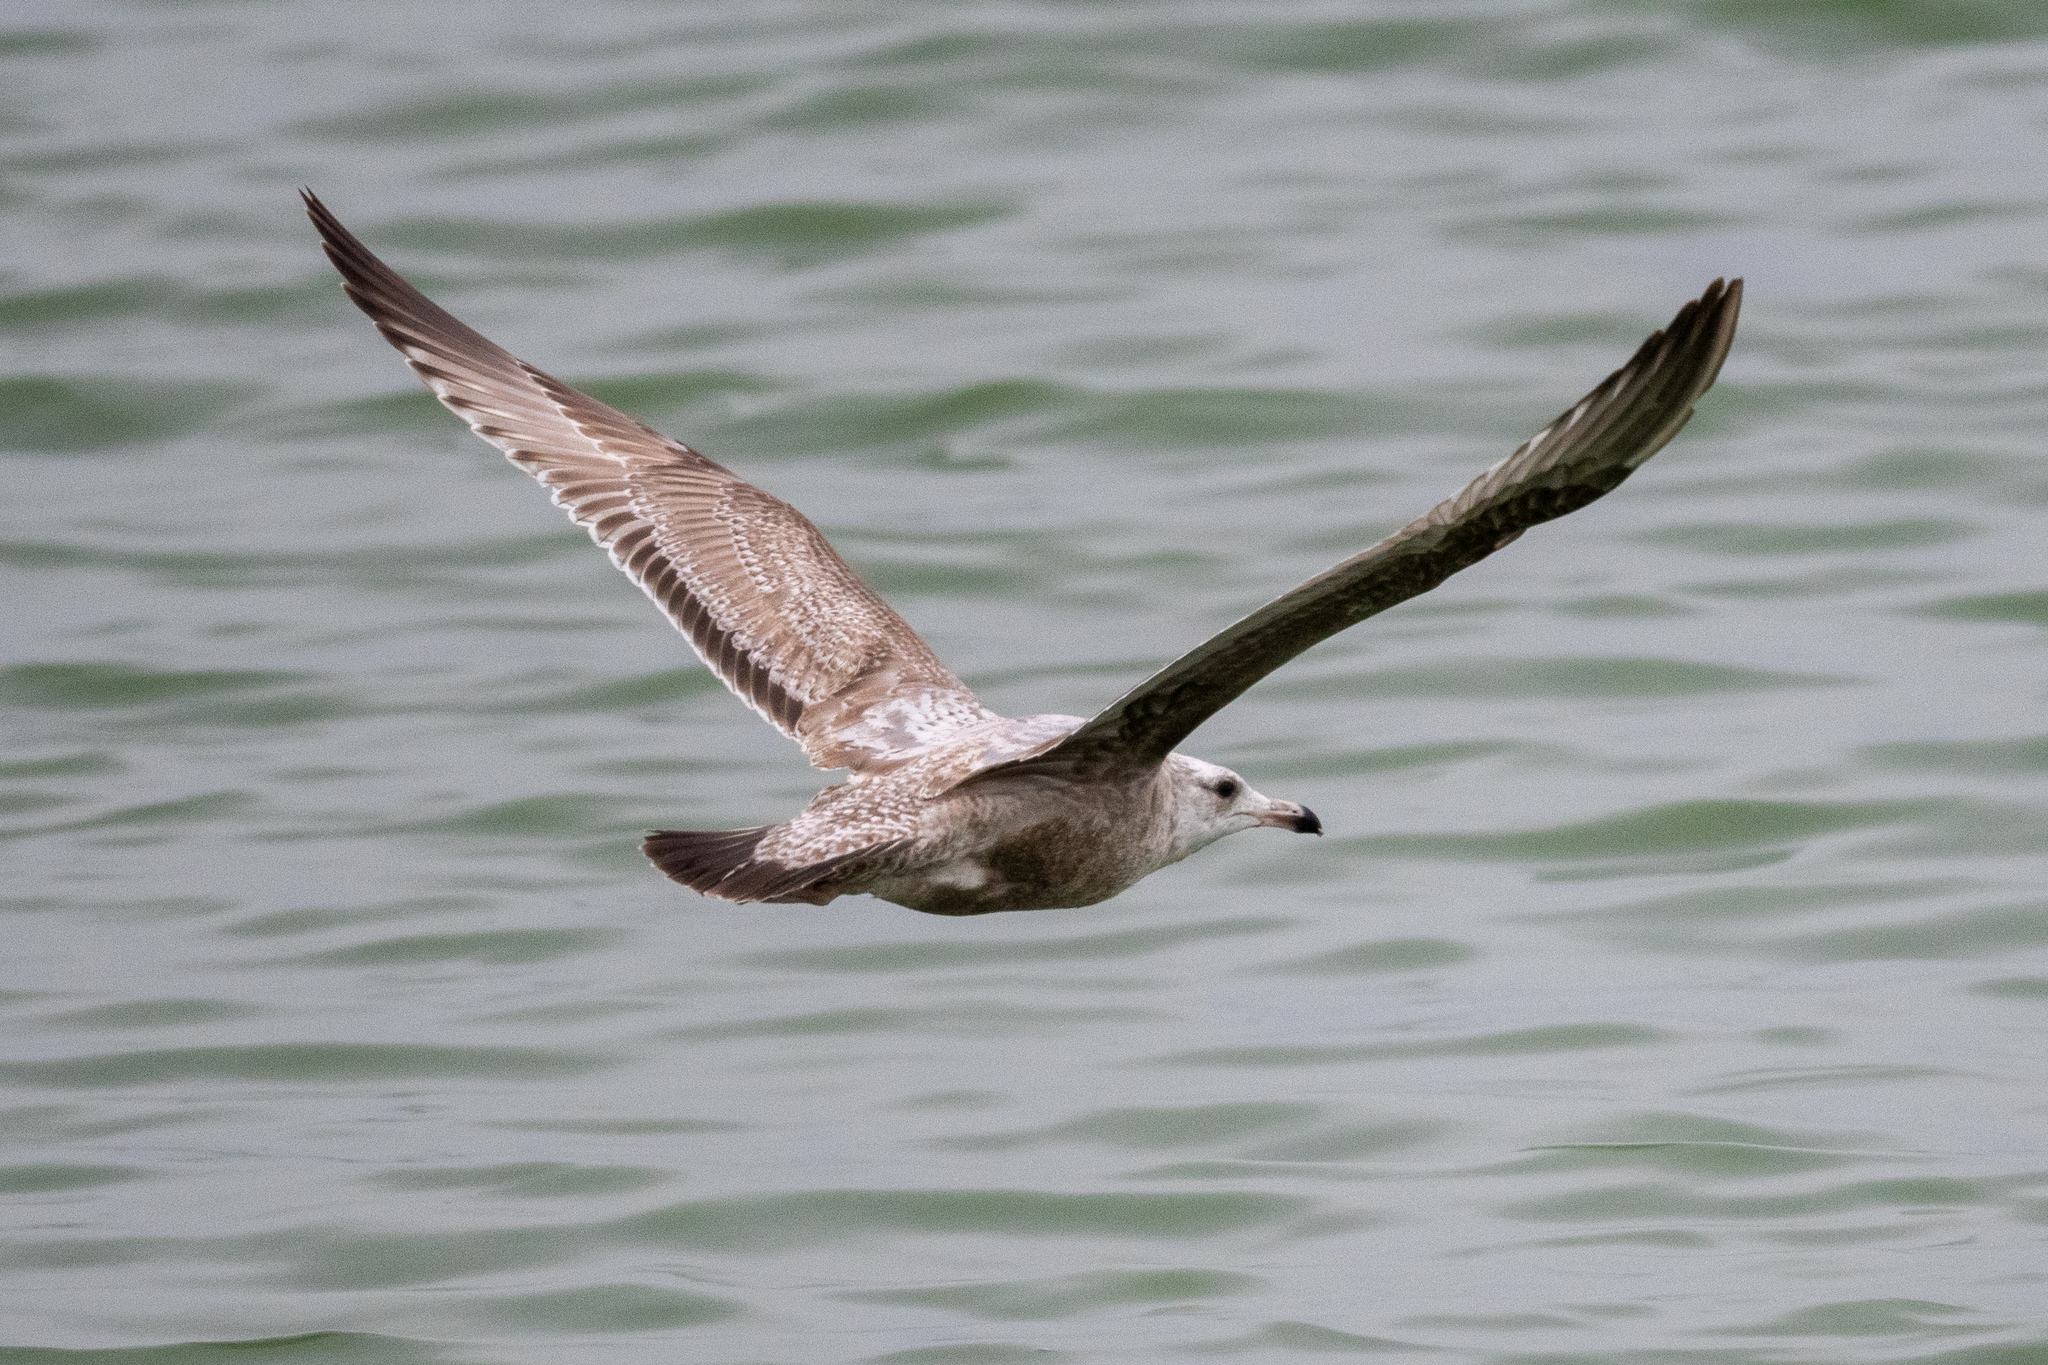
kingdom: Animalia
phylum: Chordata
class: Aves
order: Charadriiformes
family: Laridae
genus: Larus
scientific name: Larus argentatus
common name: Herring gull
